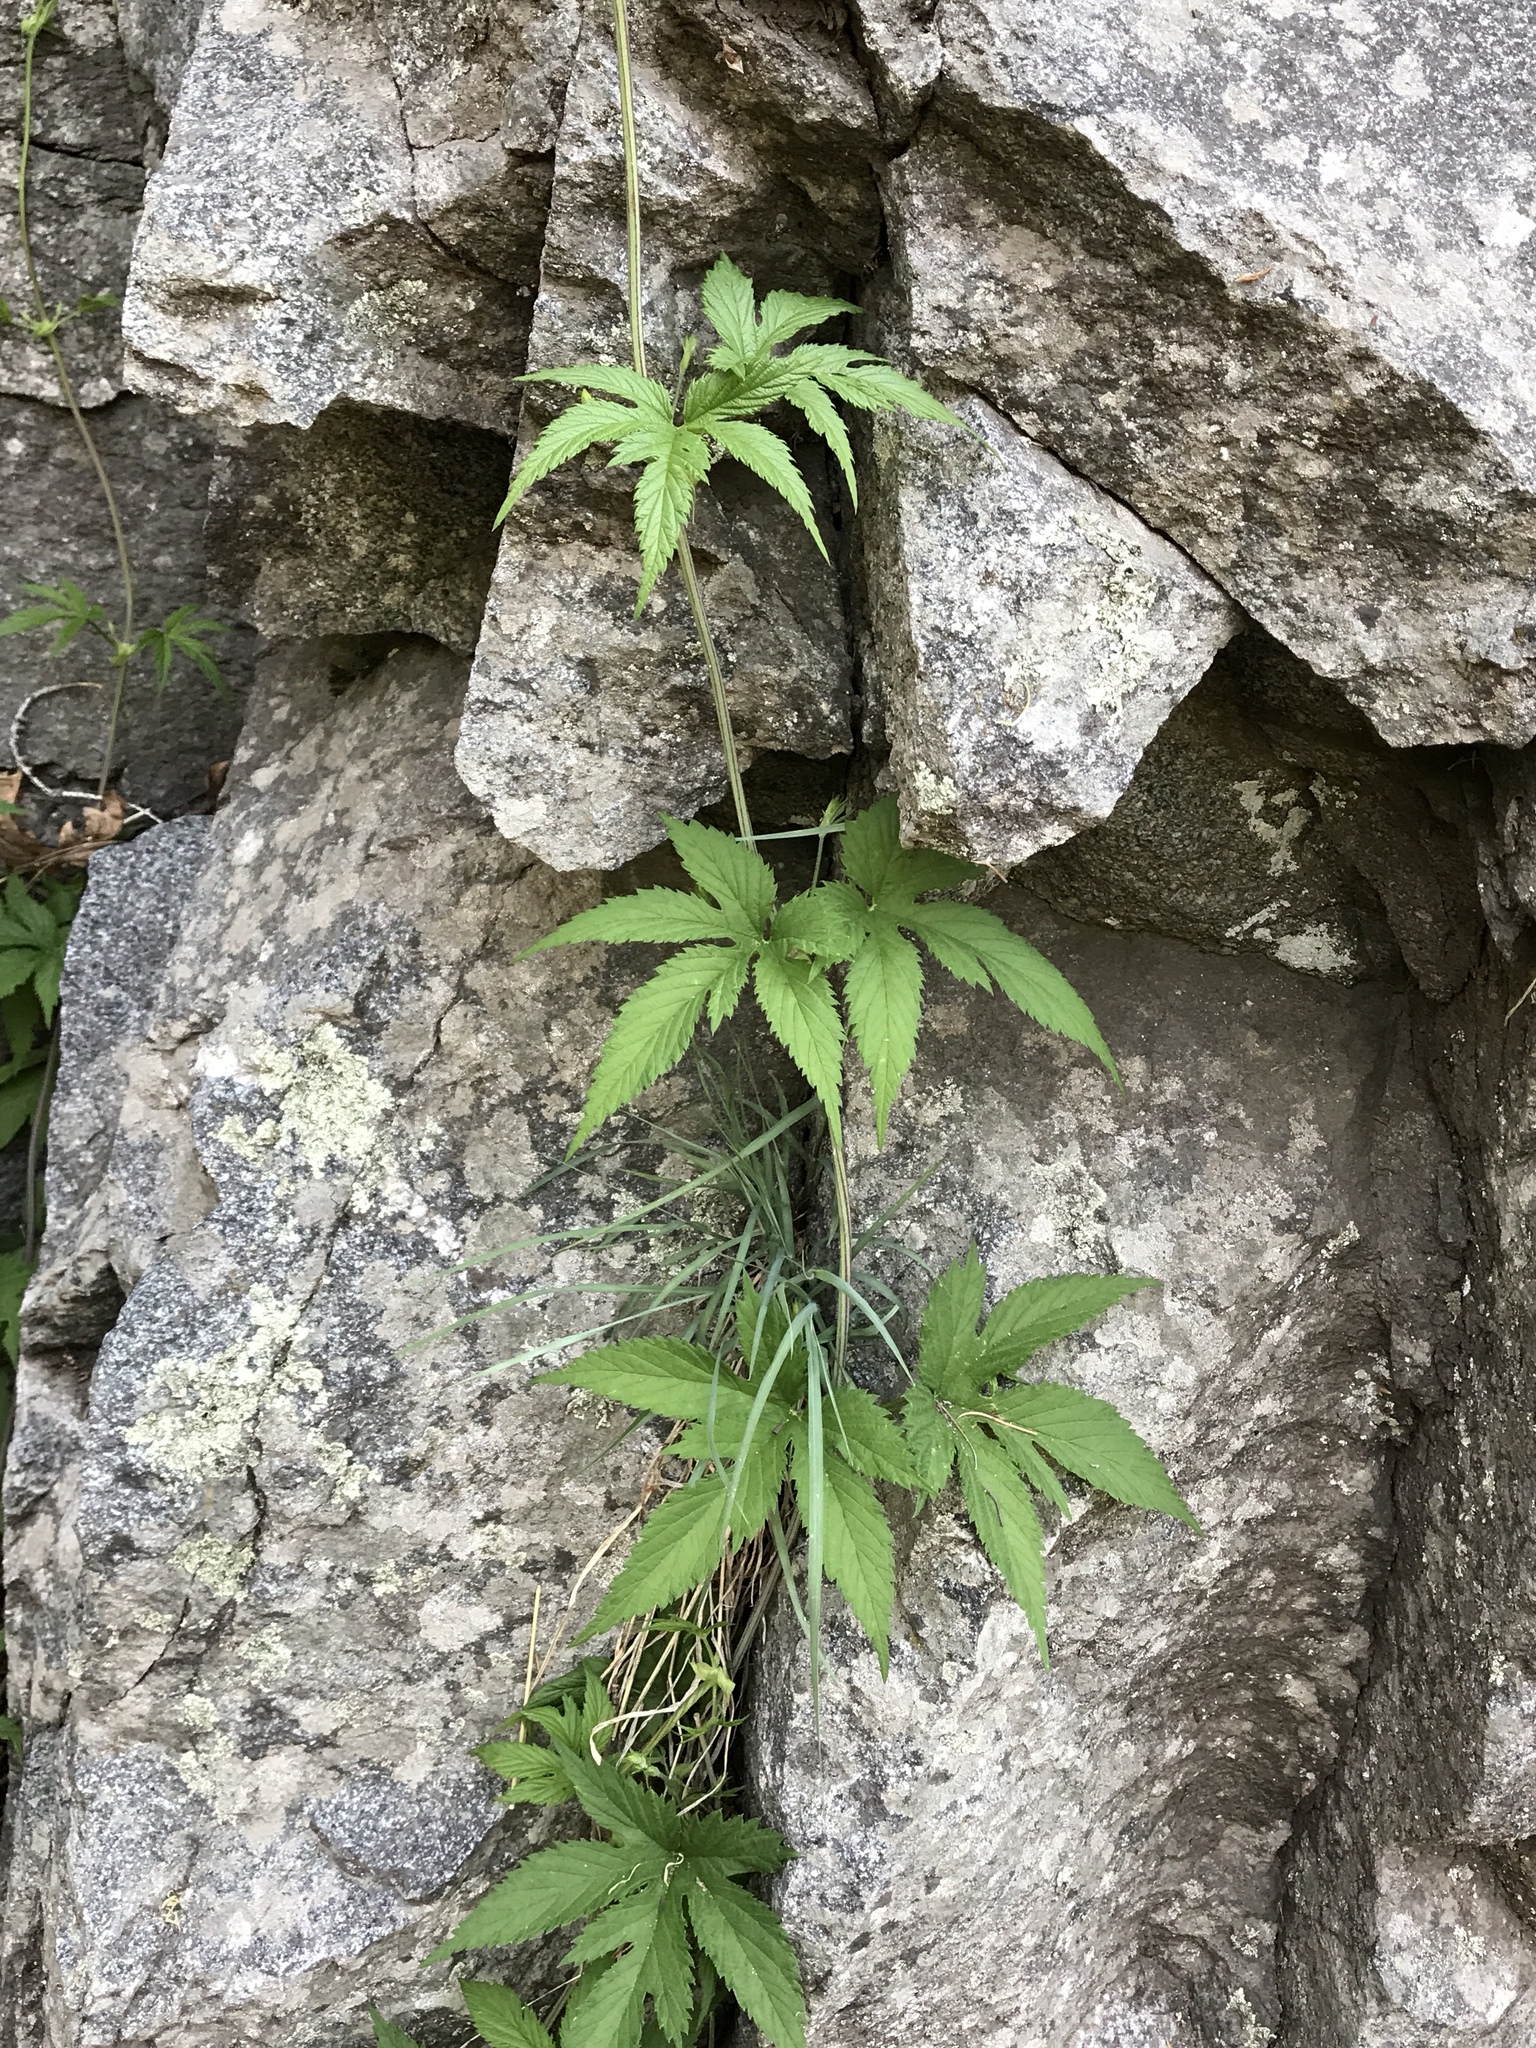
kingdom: Plantae
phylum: Tracheophyta
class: Magnoliopsida
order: Rosales
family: Cannabaceae
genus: Humulus
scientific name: Humulus lupulus
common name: Hop
